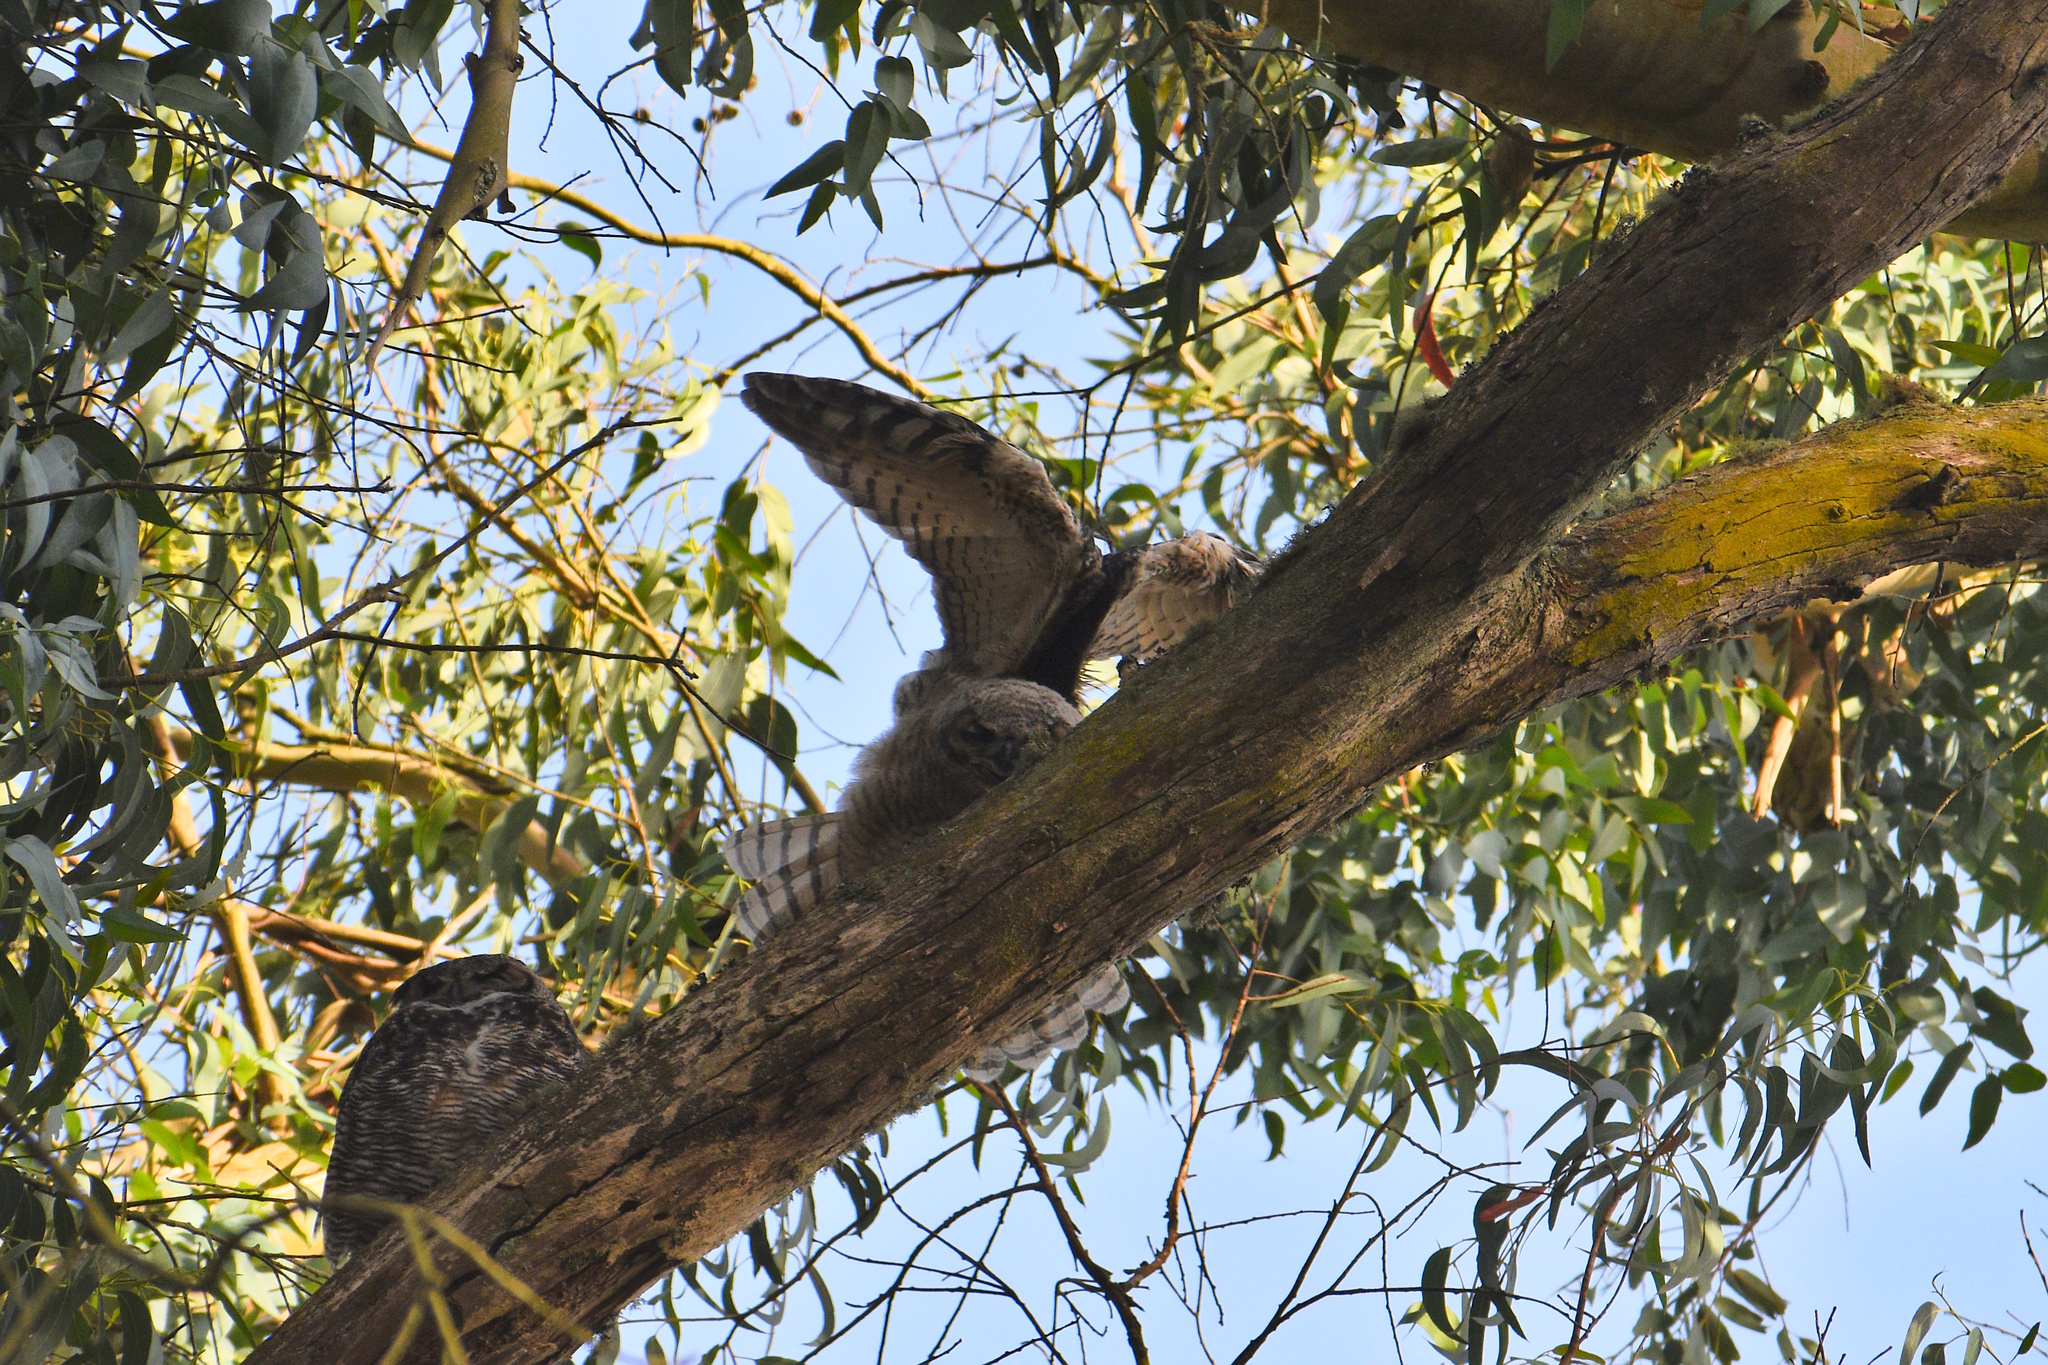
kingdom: Animalia
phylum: Chordata
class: Aves
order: Strigiformes
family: Strigidae
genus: Bubo
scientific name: Bubo virginianus
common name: Great horned owl
